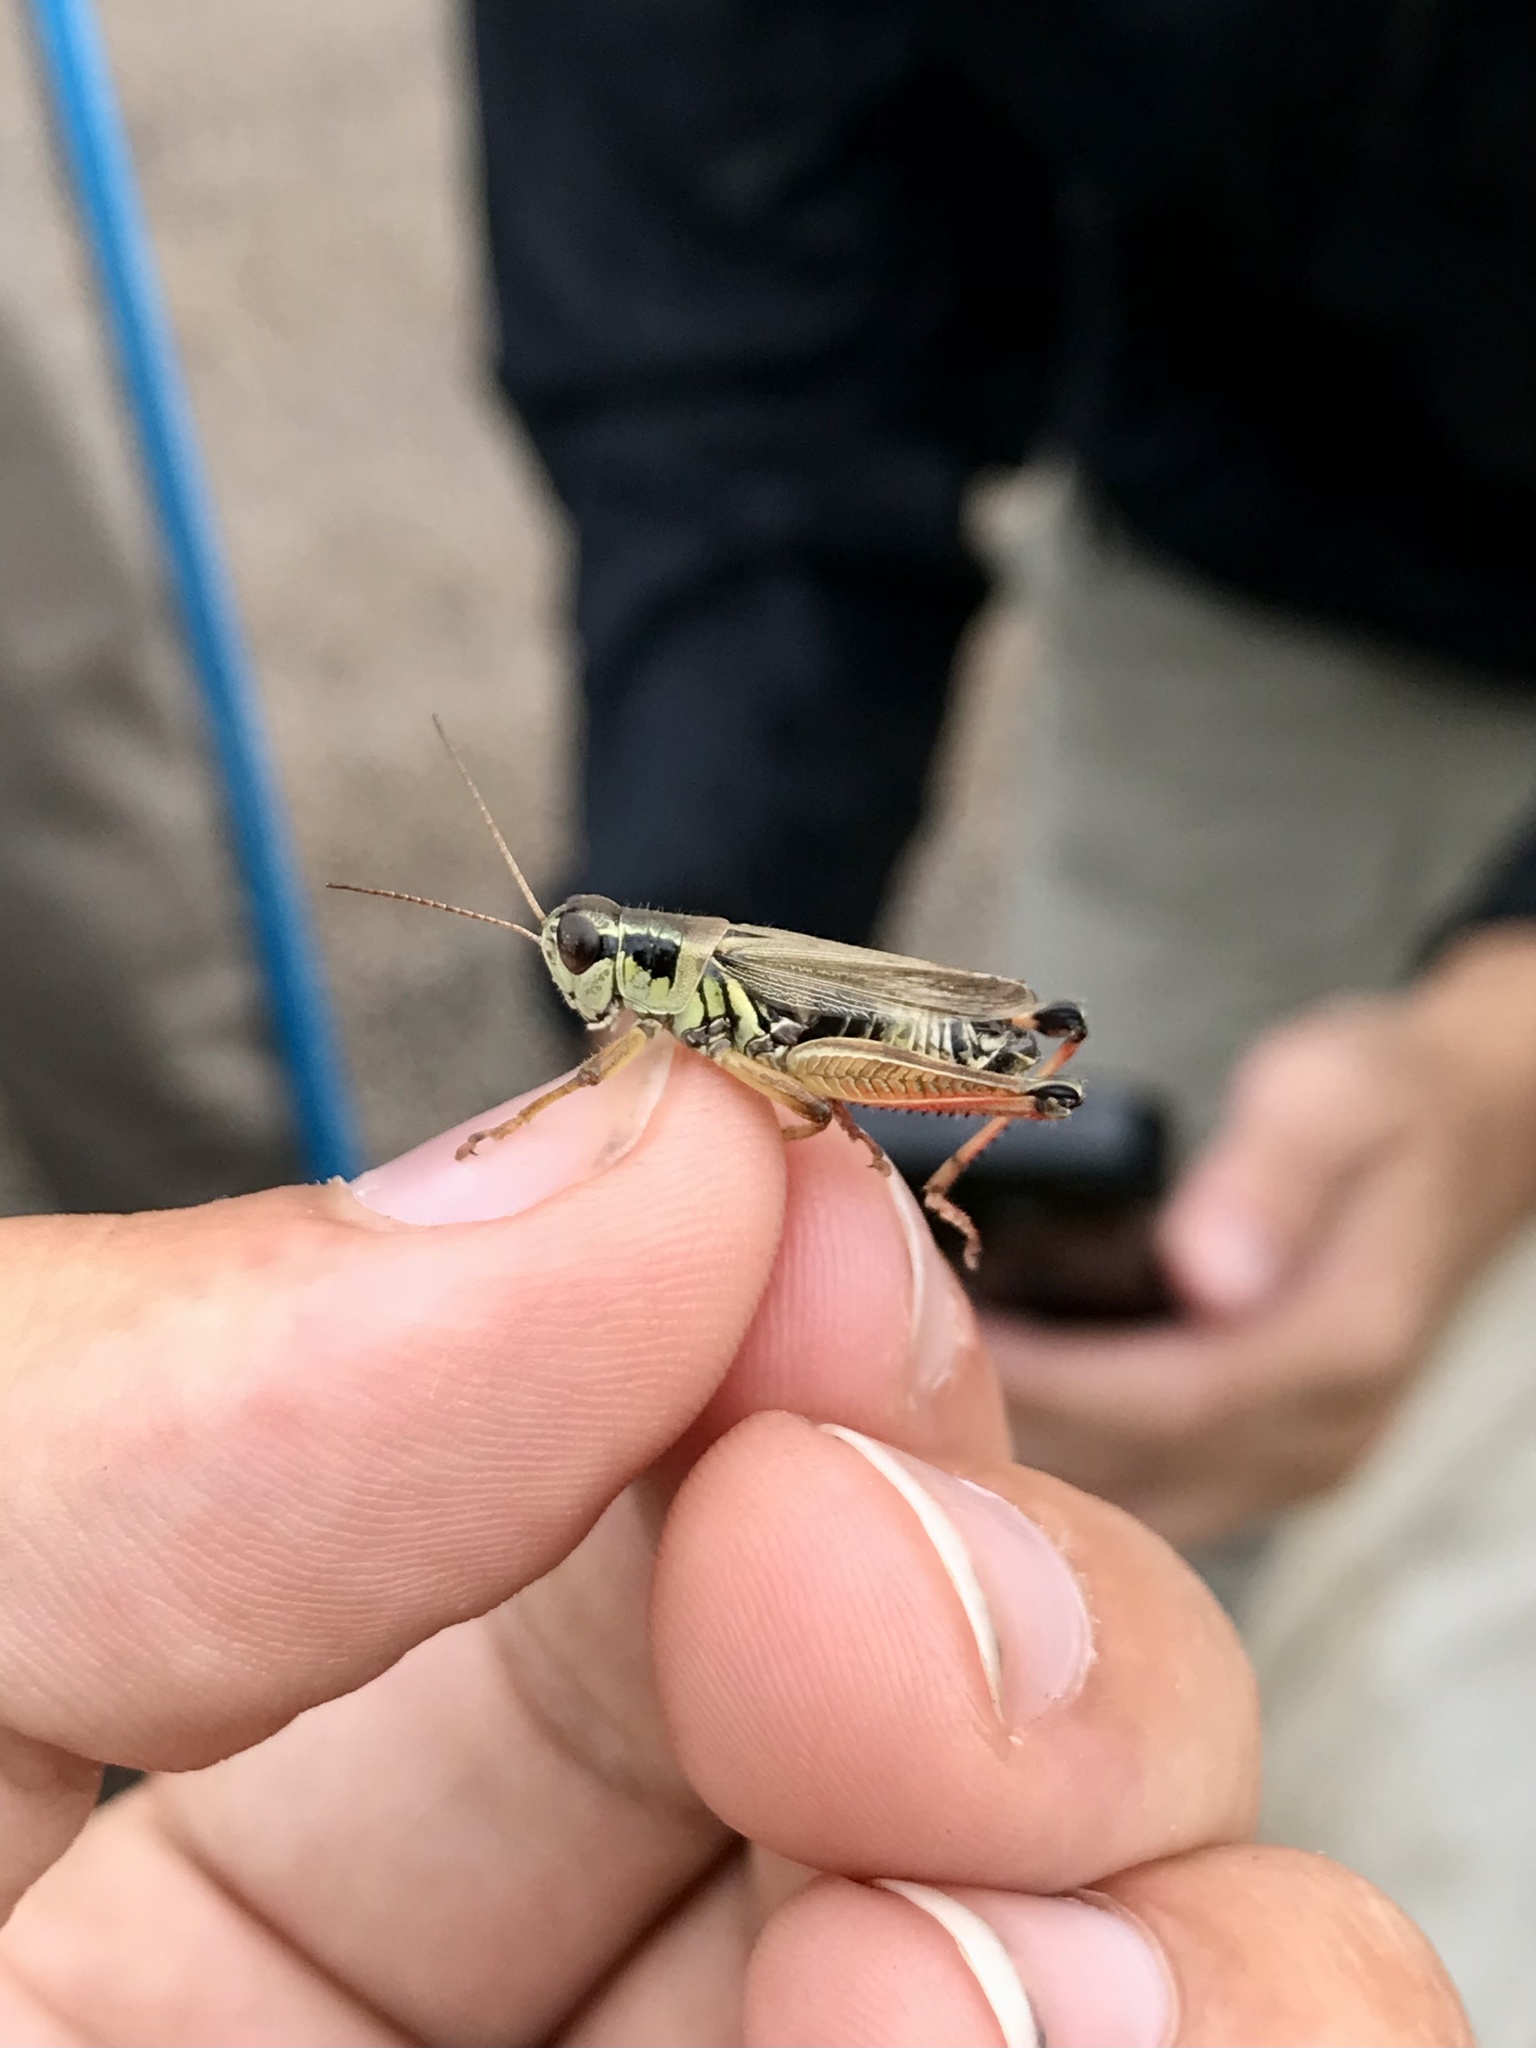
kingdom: Animalia
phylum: Arthropoda
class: Insecta
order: Orthoptera
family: Acrididae
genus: Melanoplus
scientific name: Melanoplus borealis
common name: Northern grasshopper
